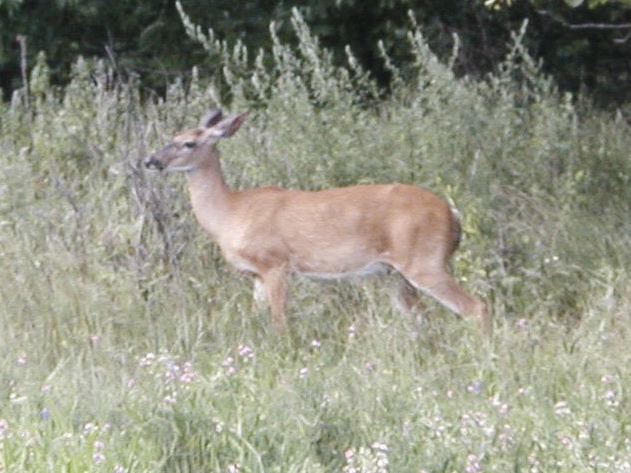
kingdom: Animalia
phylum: Chordata
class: Mammalia
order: Artiodactyla
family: Cervidae
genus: Odocoileus
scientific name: Odocoileus virginianus
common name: White-tailed deer
